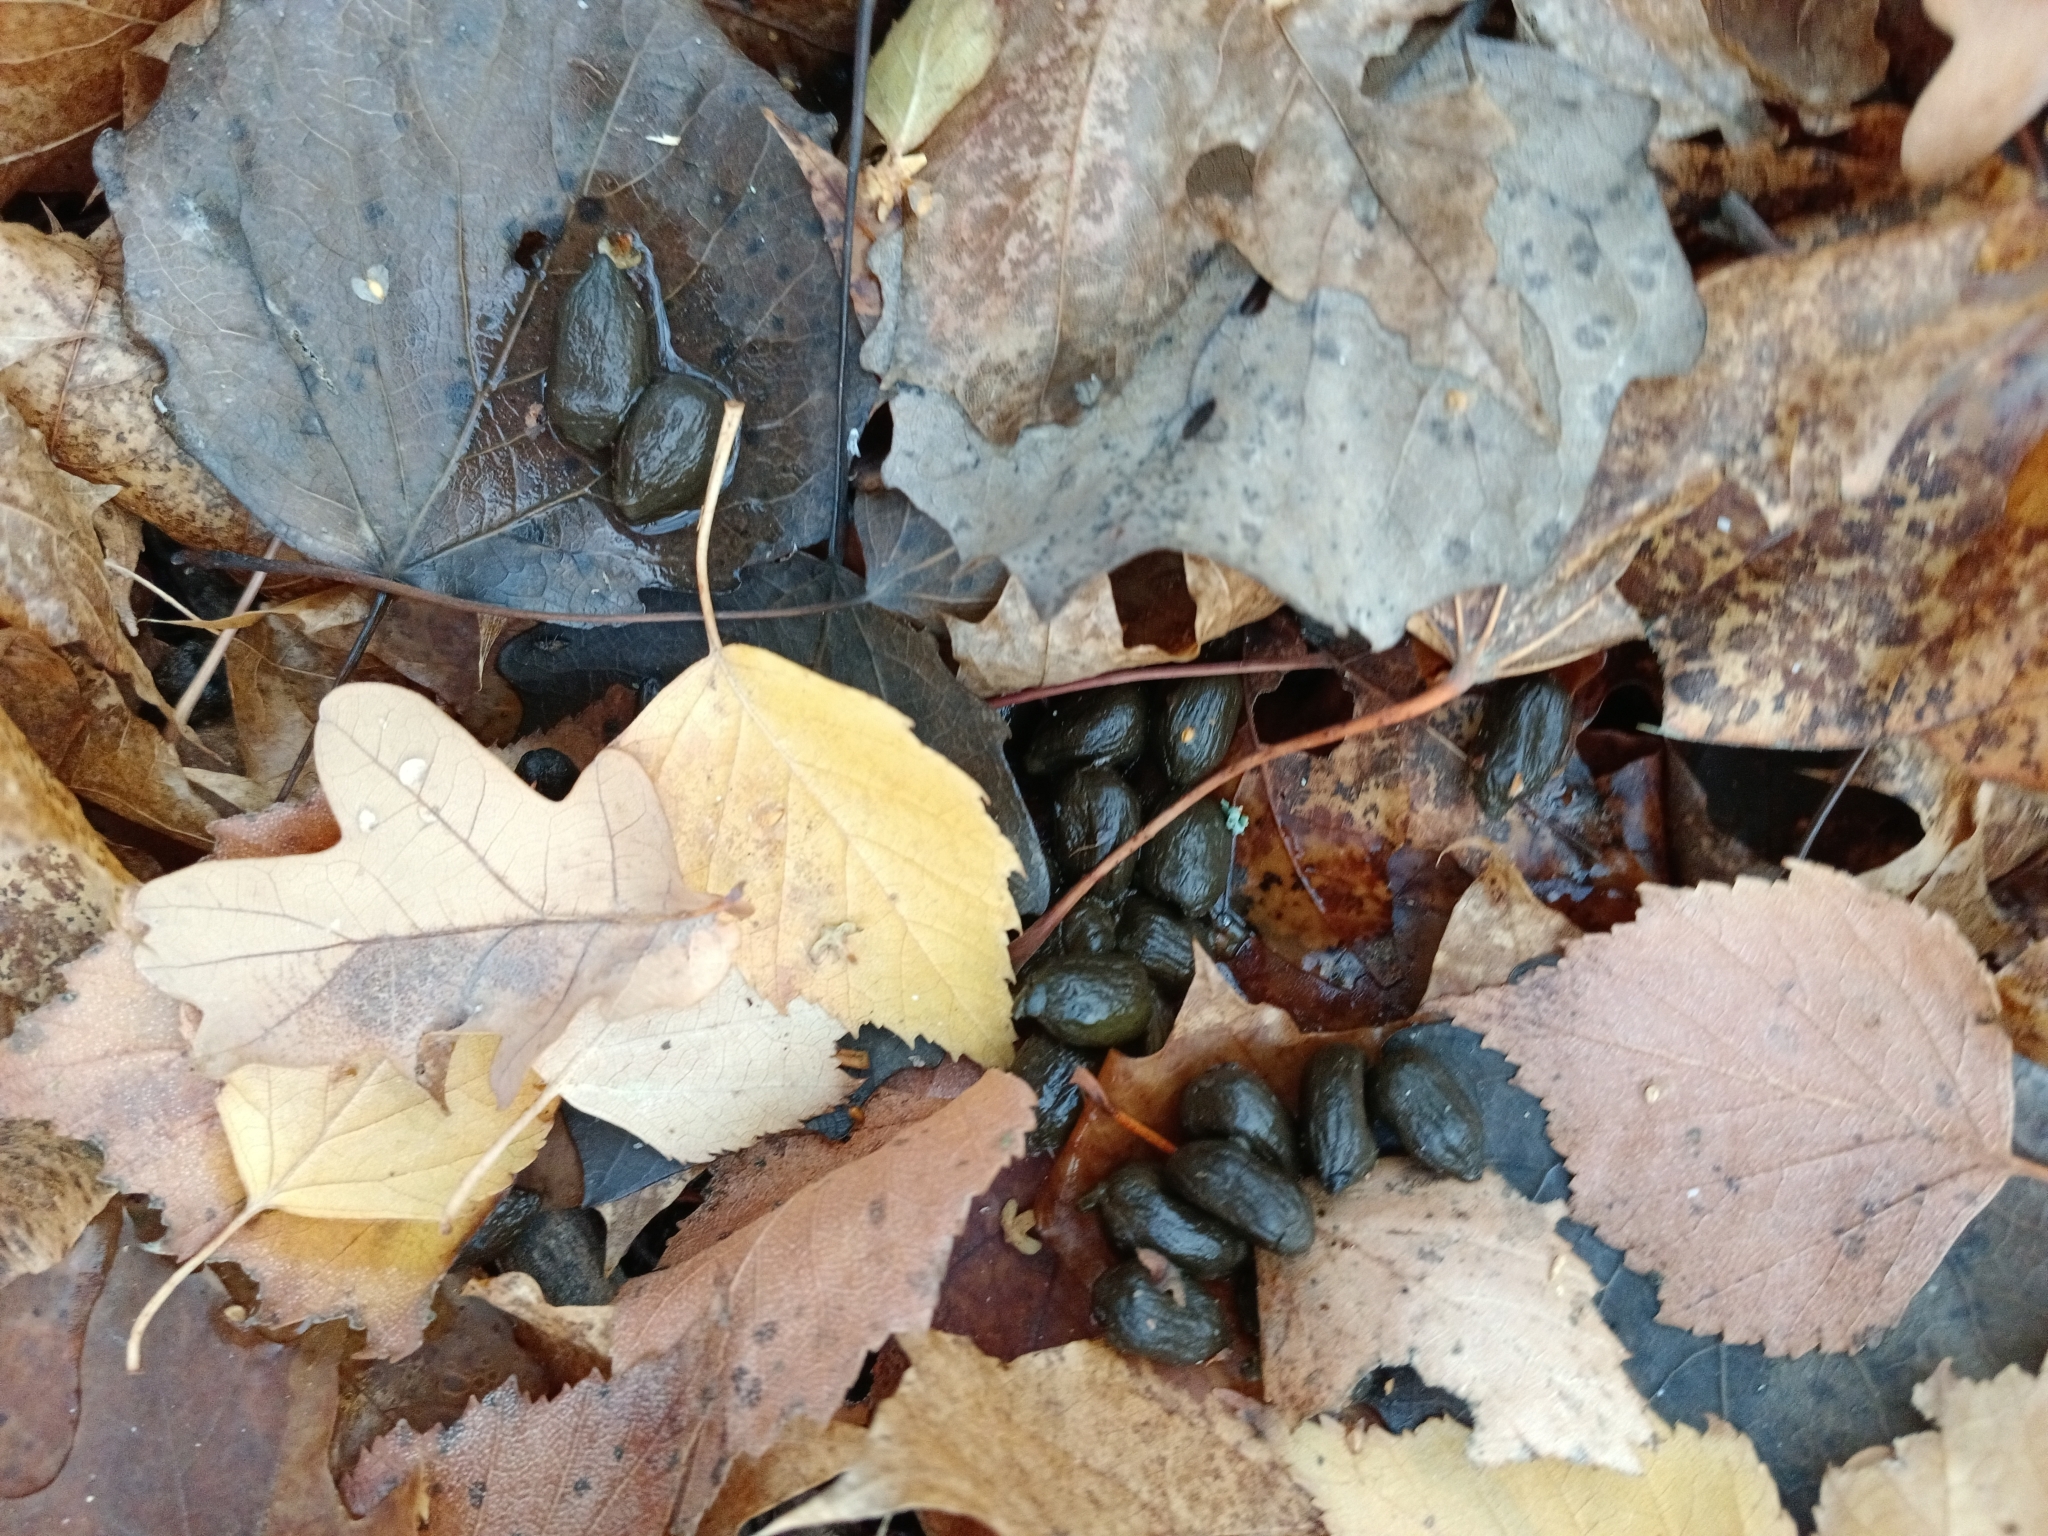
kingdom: Animalia
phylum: Chordata
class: Mammalia
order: Artiodactyla
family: Cervidae
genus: Capreolus
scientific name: Capreolus pygargus
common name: Siberian roe
